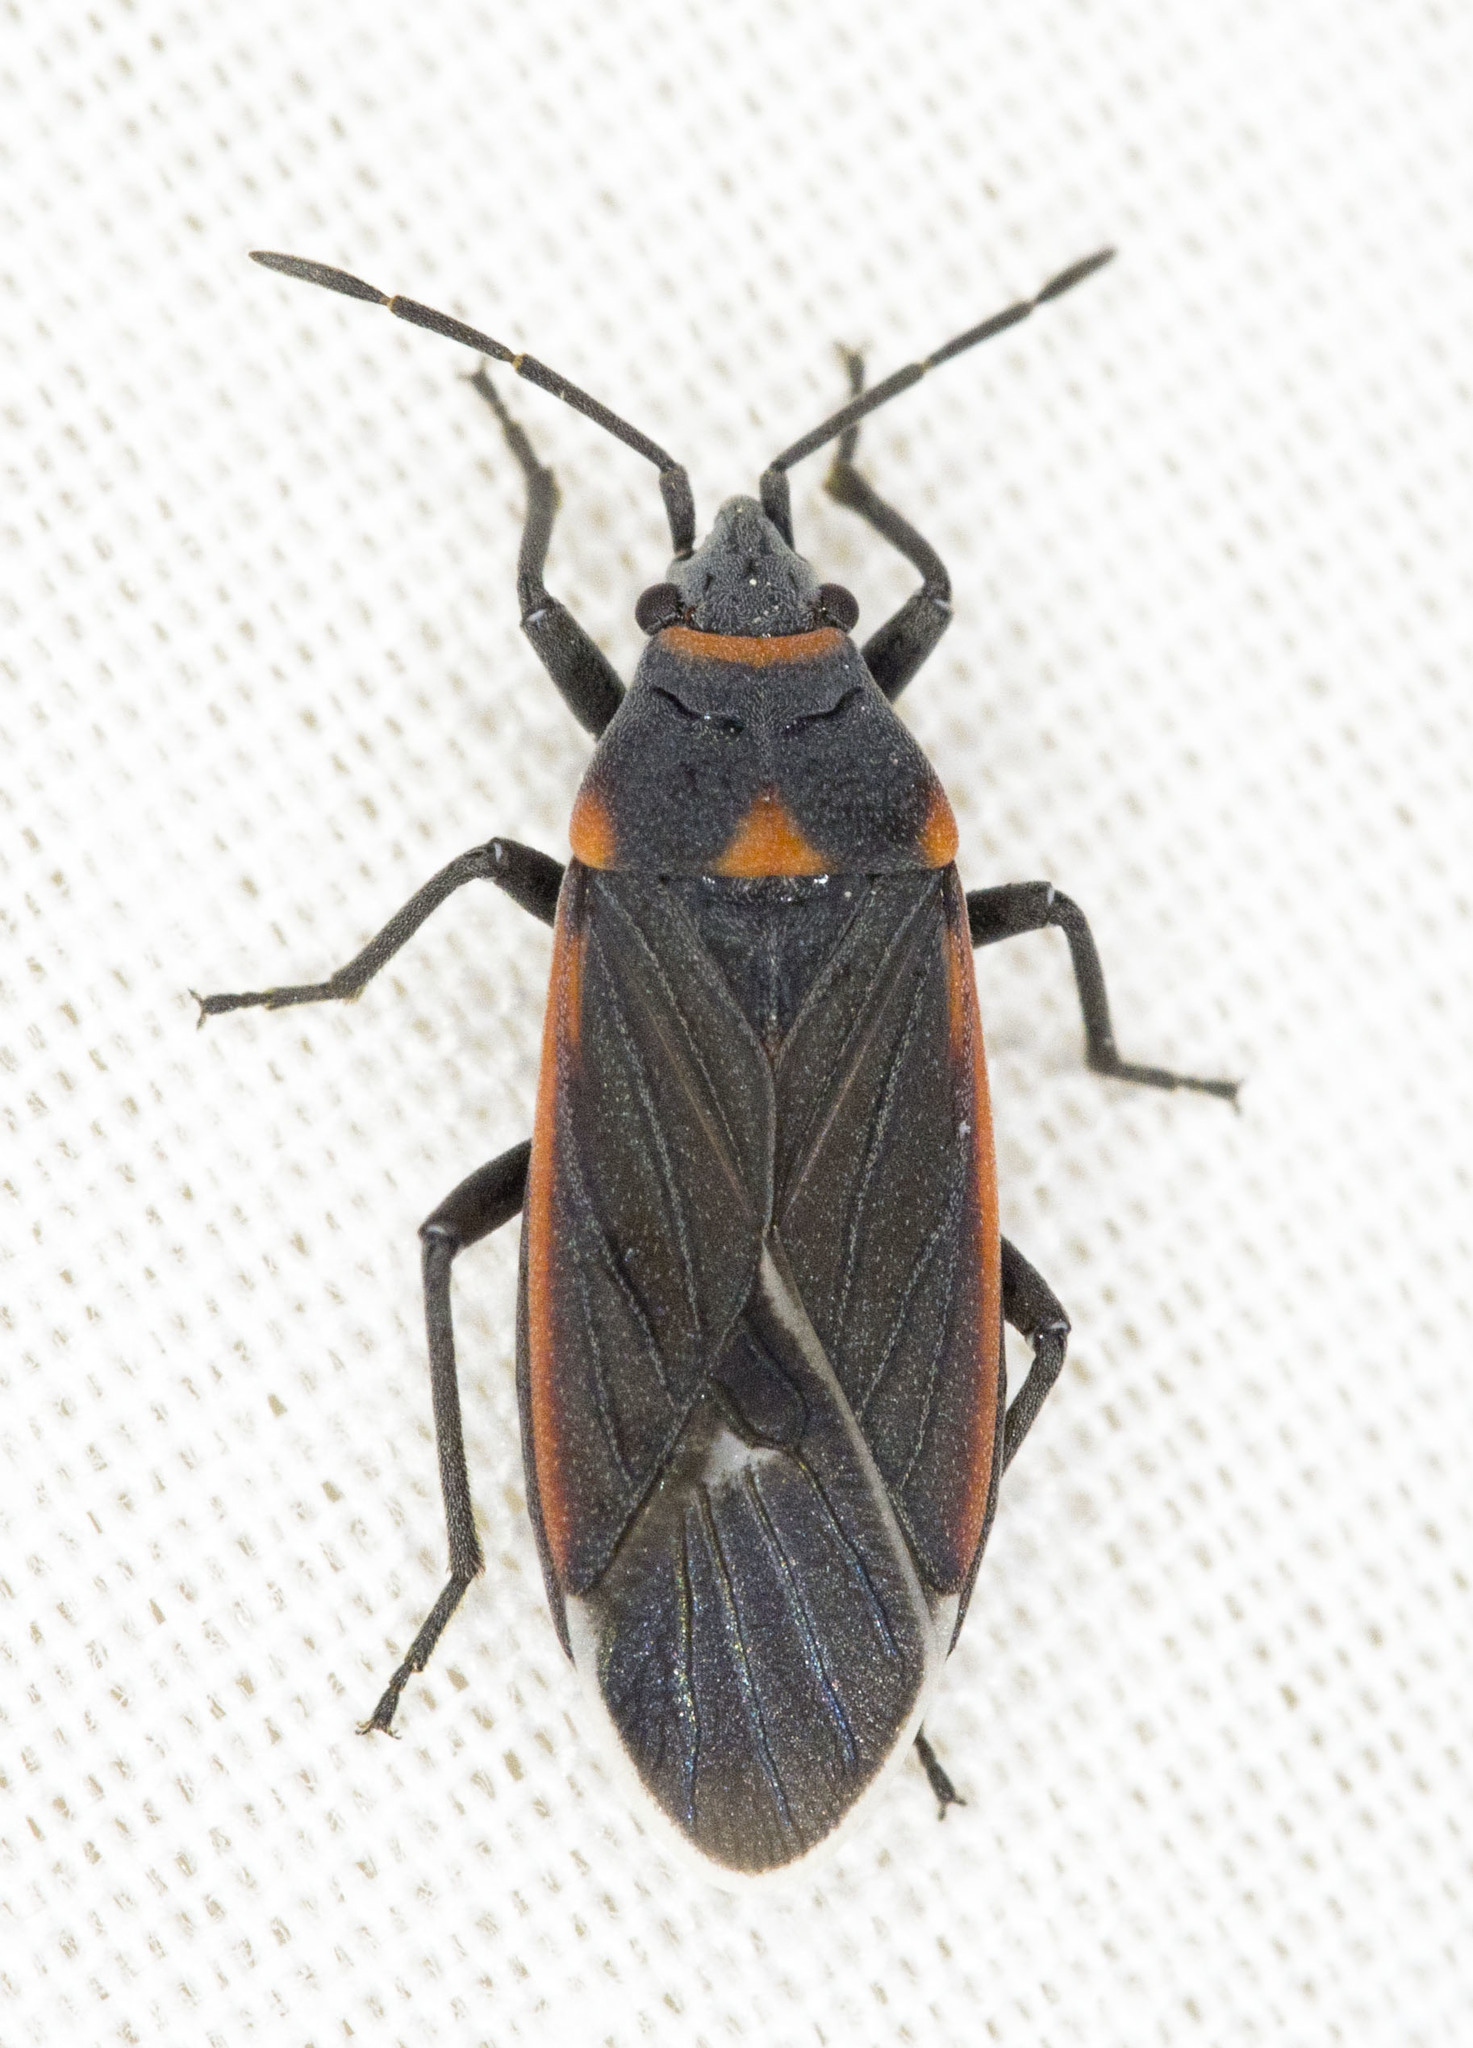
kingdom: Animalia
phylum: Arthropoda
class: Insecta
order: Hemiptera
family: Lygaeidae
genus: Melacoryphus
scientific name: Melacoryphus lateralis
